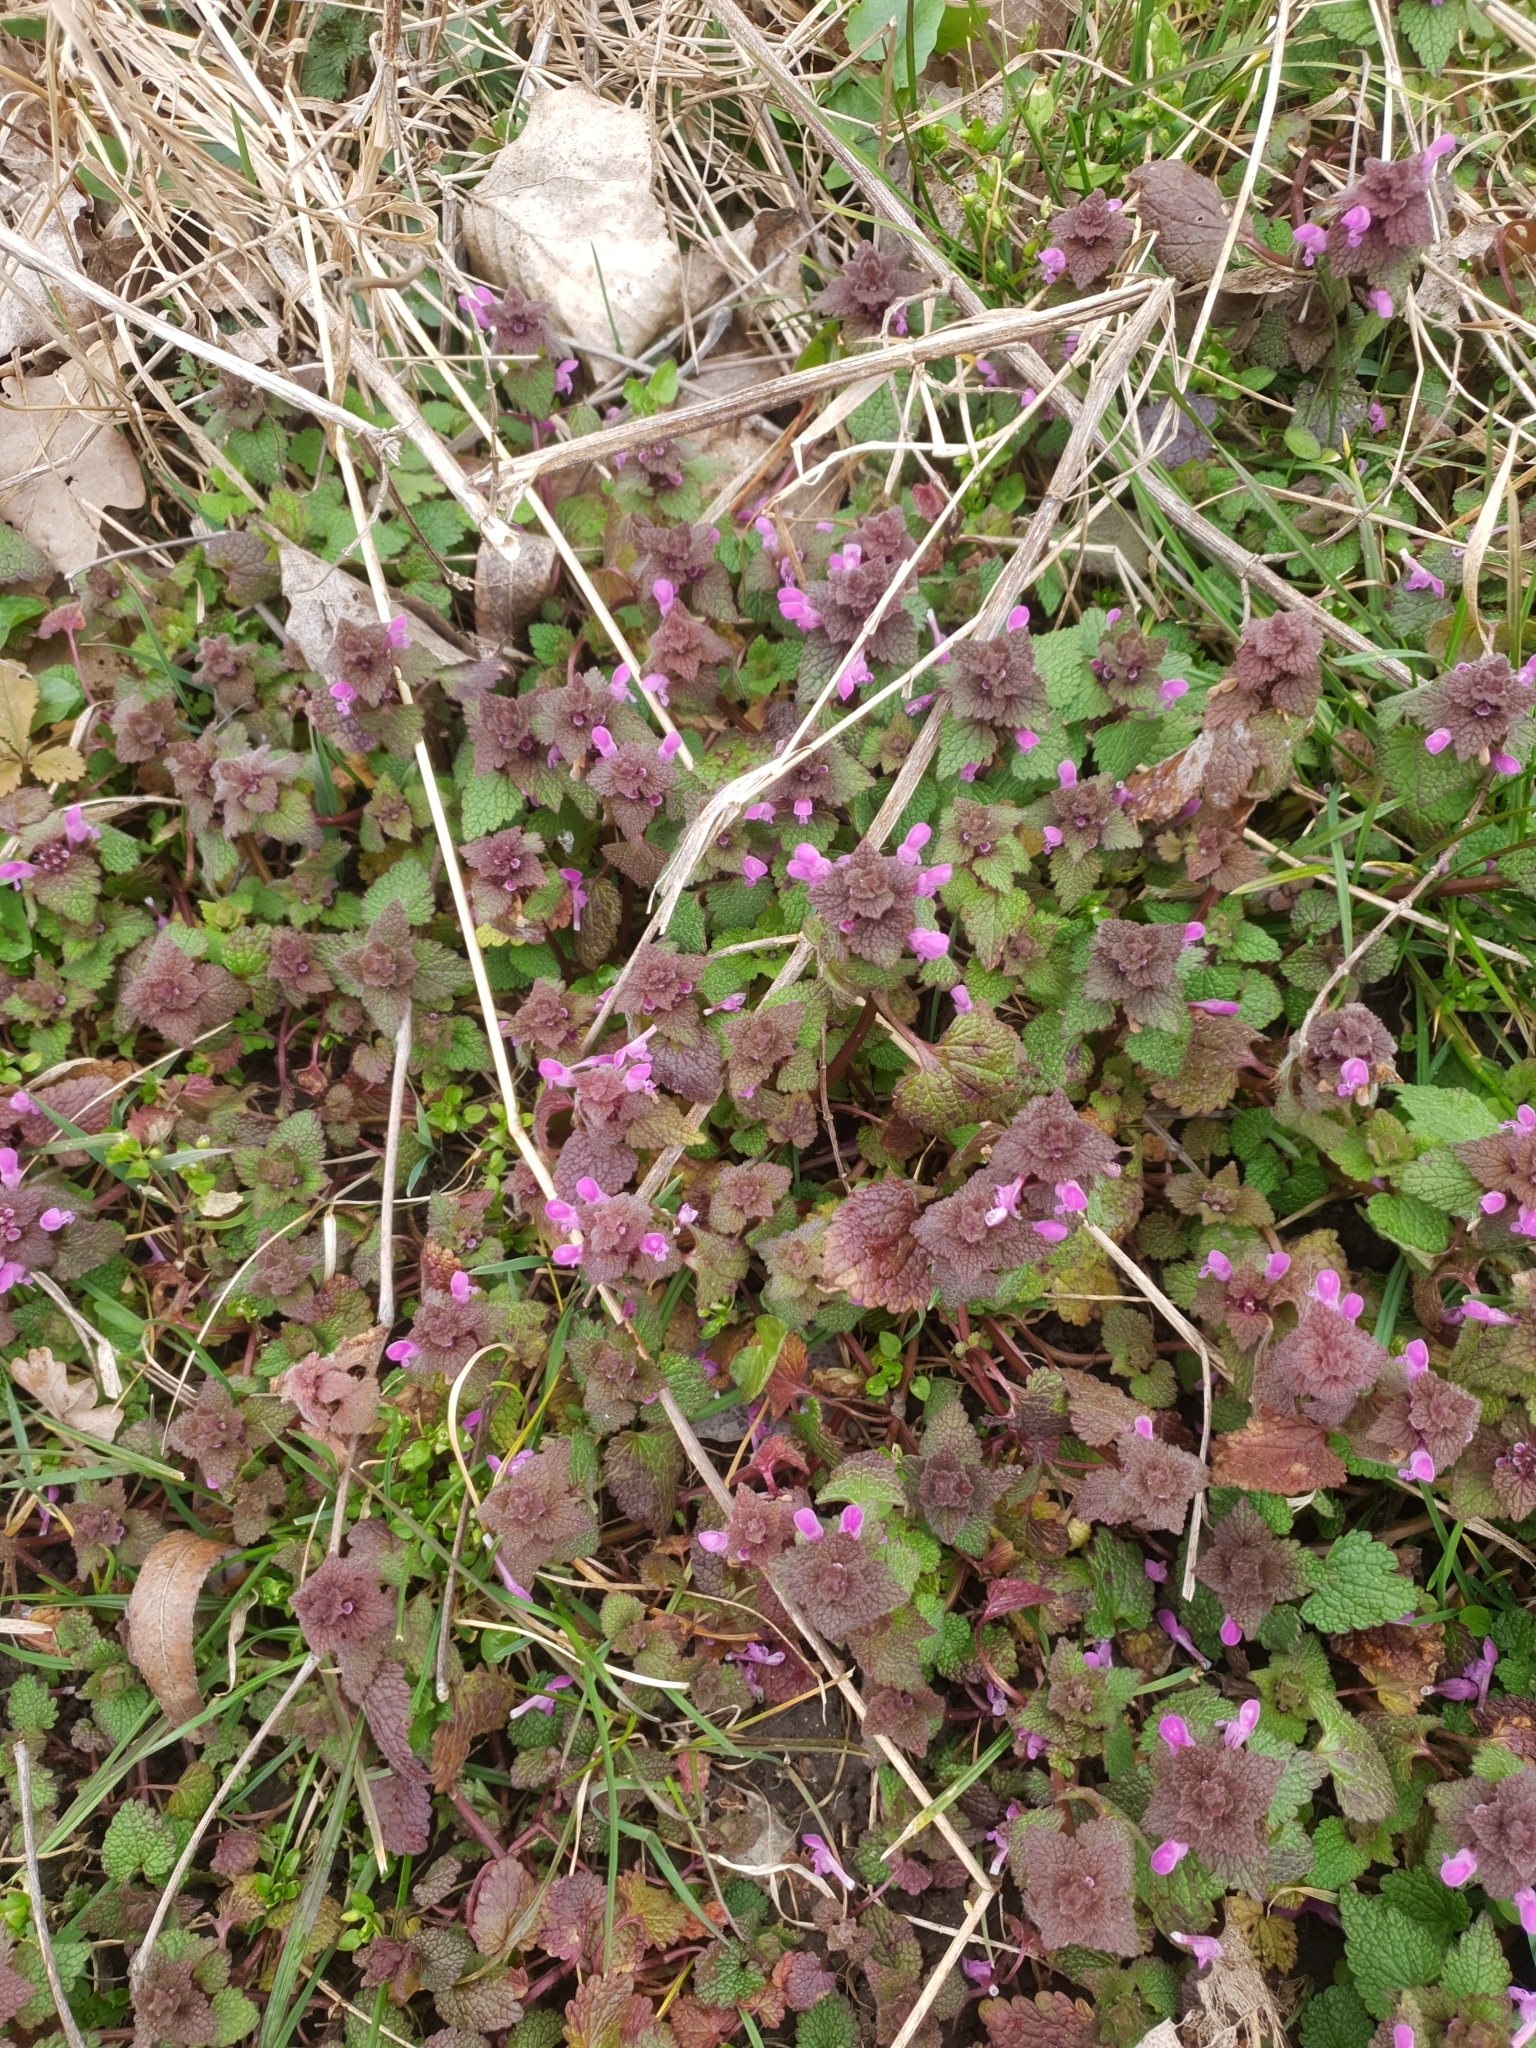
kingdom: Plantae
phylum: Tracheophyta
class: Magnoliopsida
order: Lamiales
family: Lamiaceae
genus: Lamium
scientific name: Lamium purpureum
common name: Red dead-nettle
